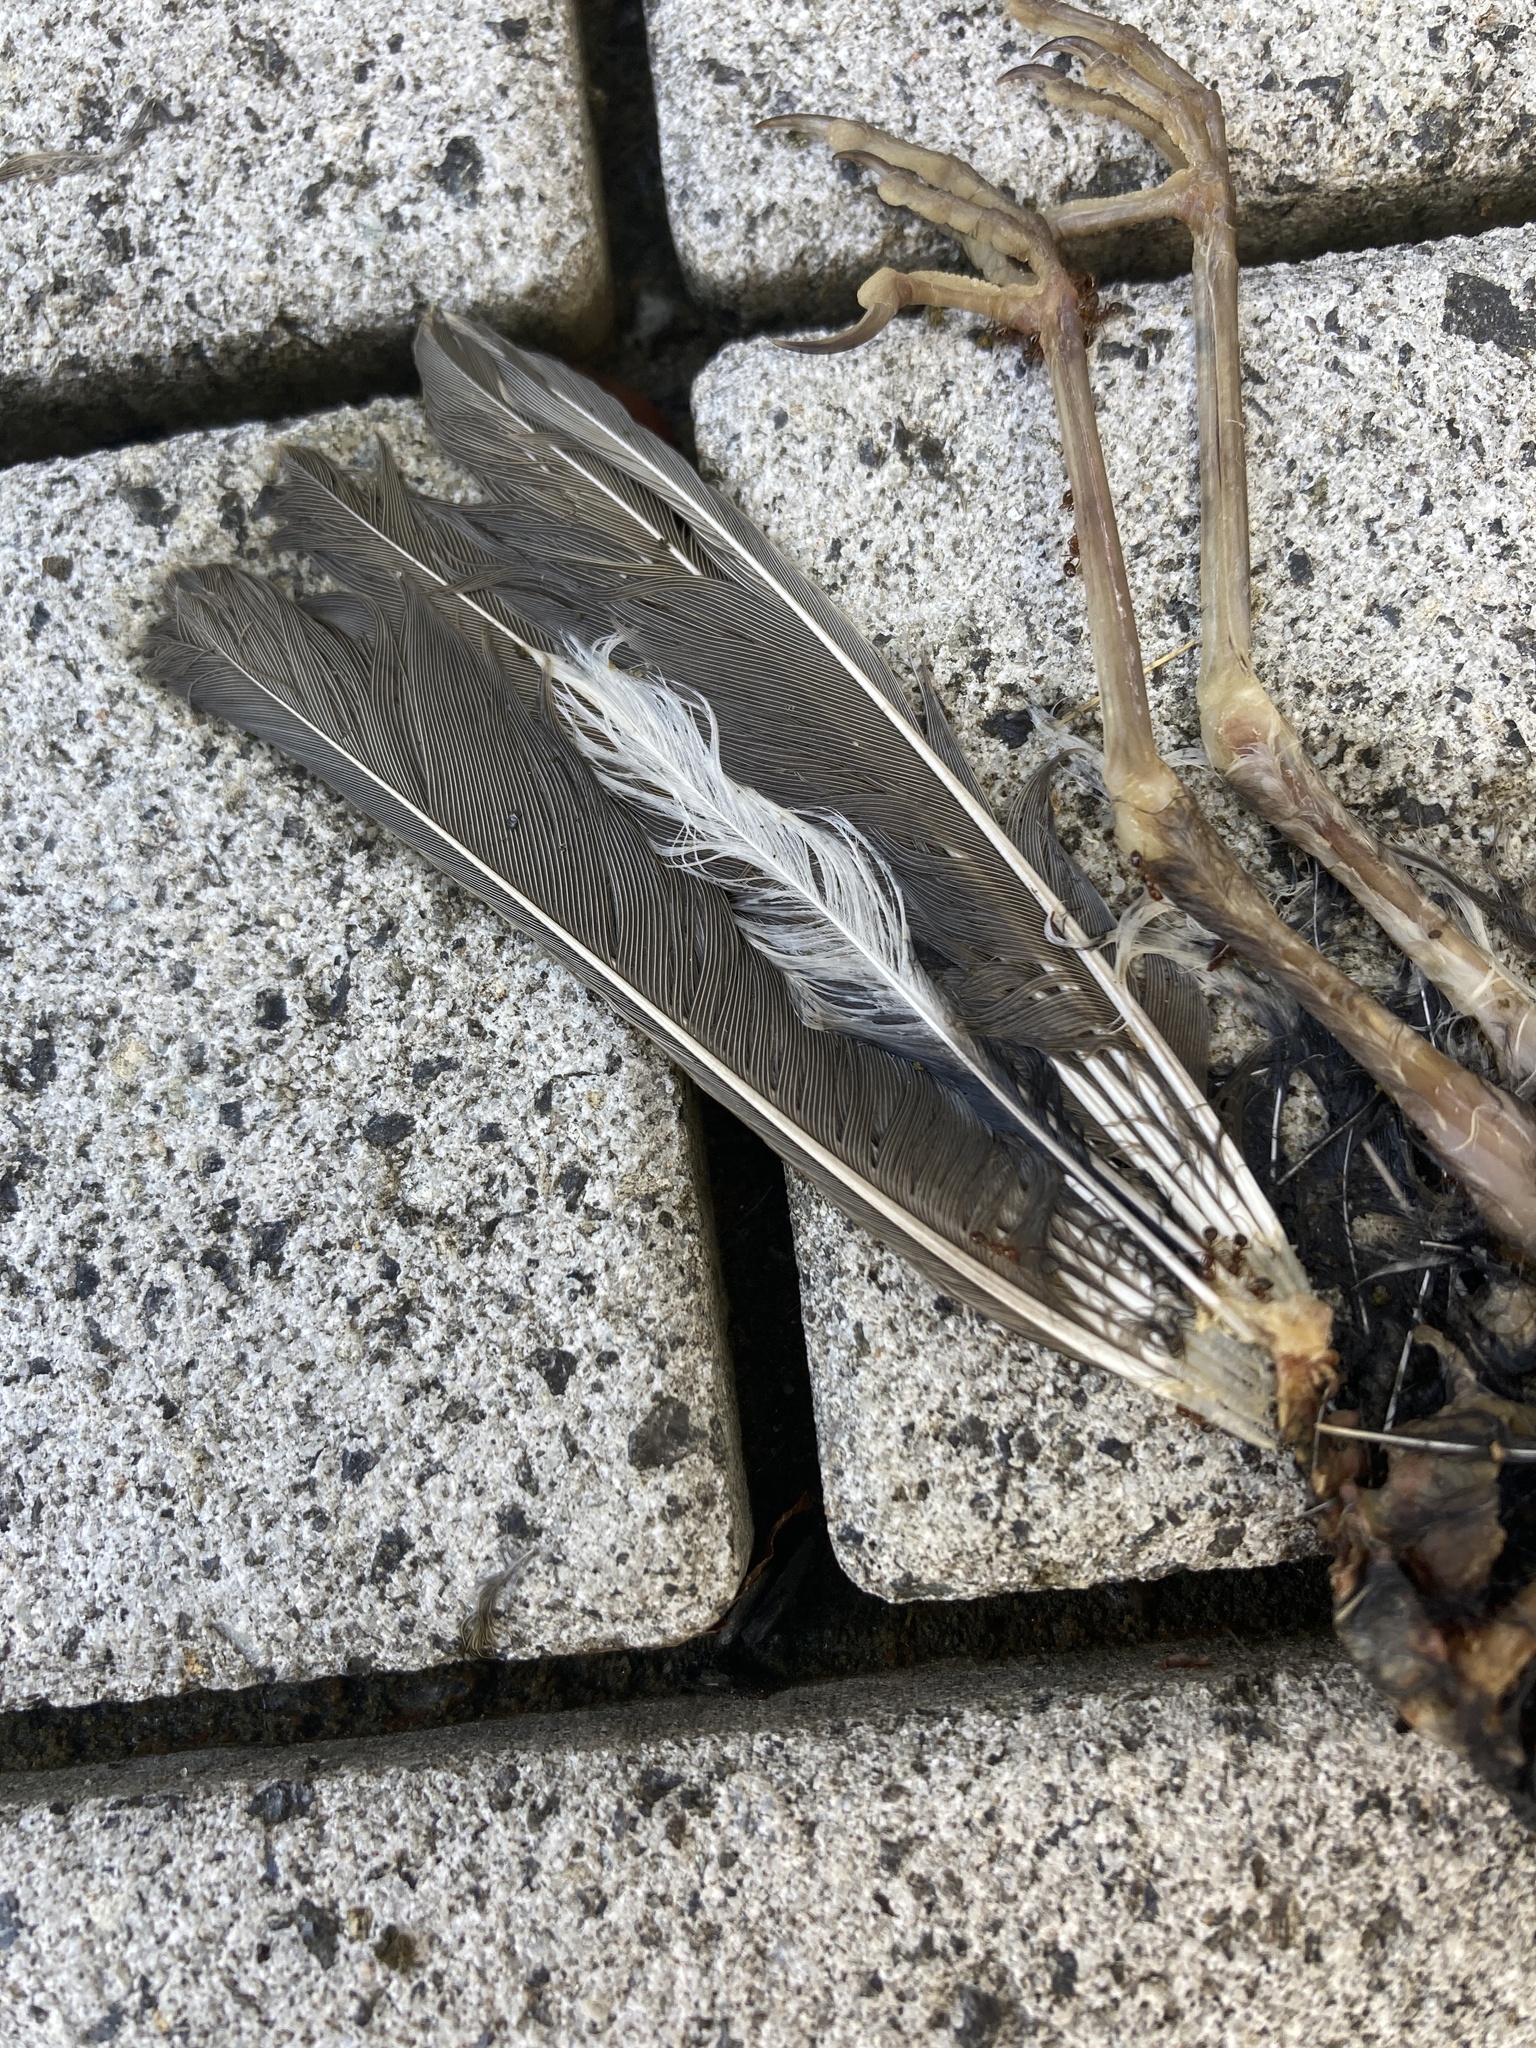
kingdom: Animalia
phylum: Chordata
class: Aves
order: Passeriformes
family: Turdidae
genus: Catharus
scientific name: Catharus
